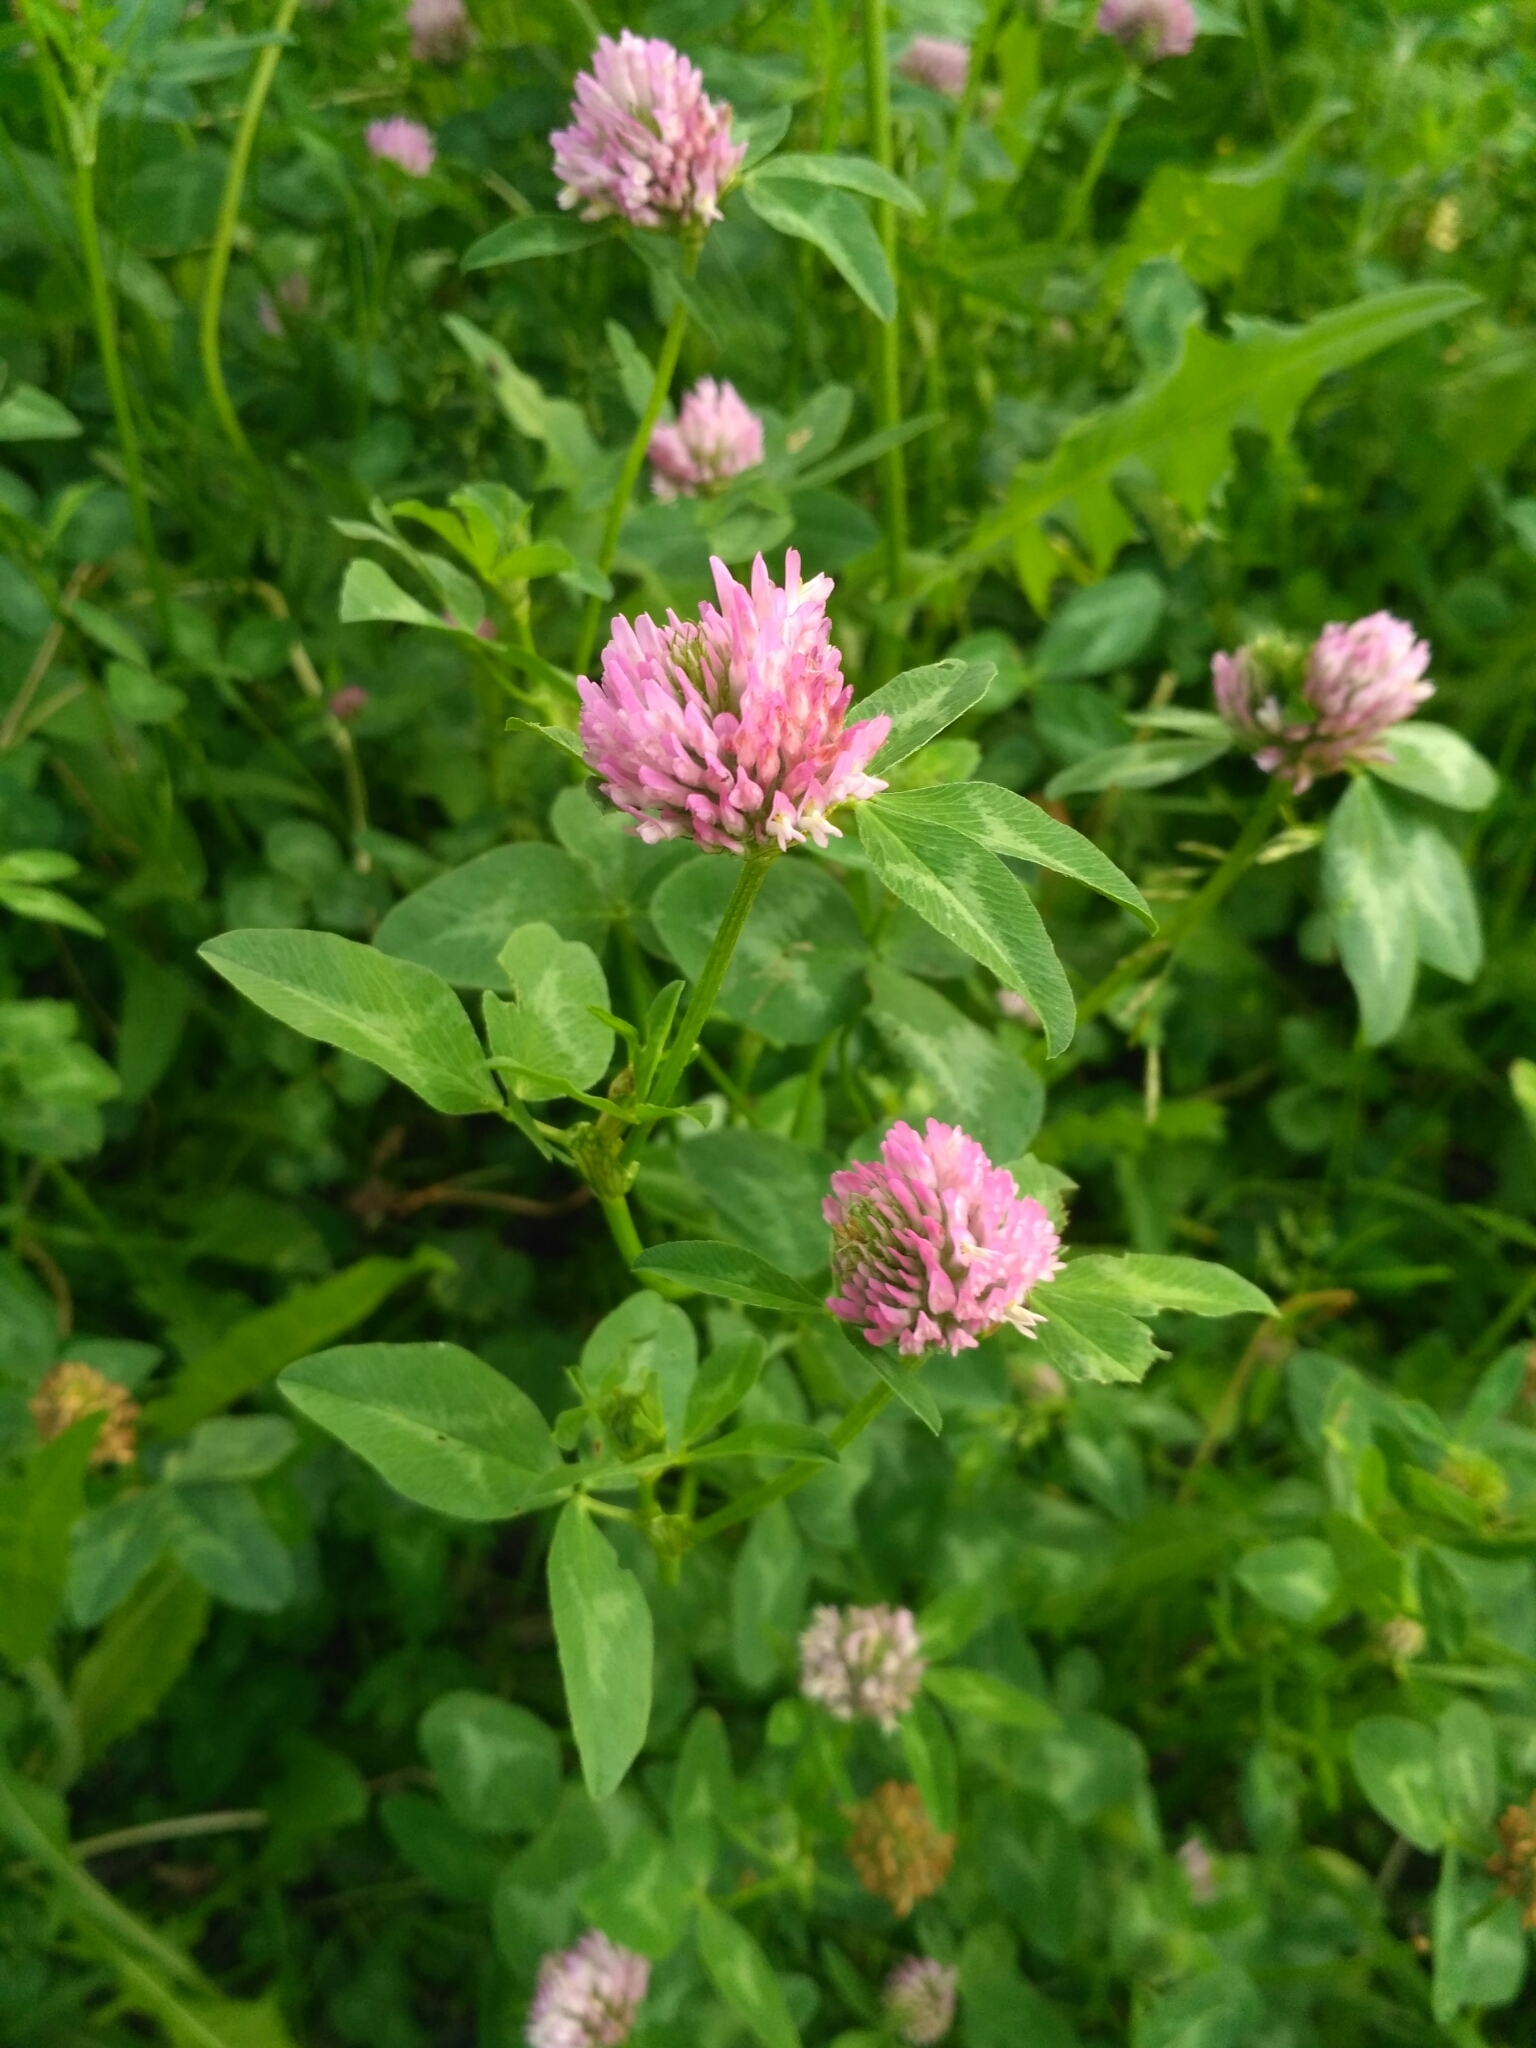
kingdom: Plantae
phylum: Tracheophyta
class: Magnoliopsida
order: Fabales
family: Fabaceae
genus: Trifolium
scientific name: Trifolium pratense
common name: Red clover
